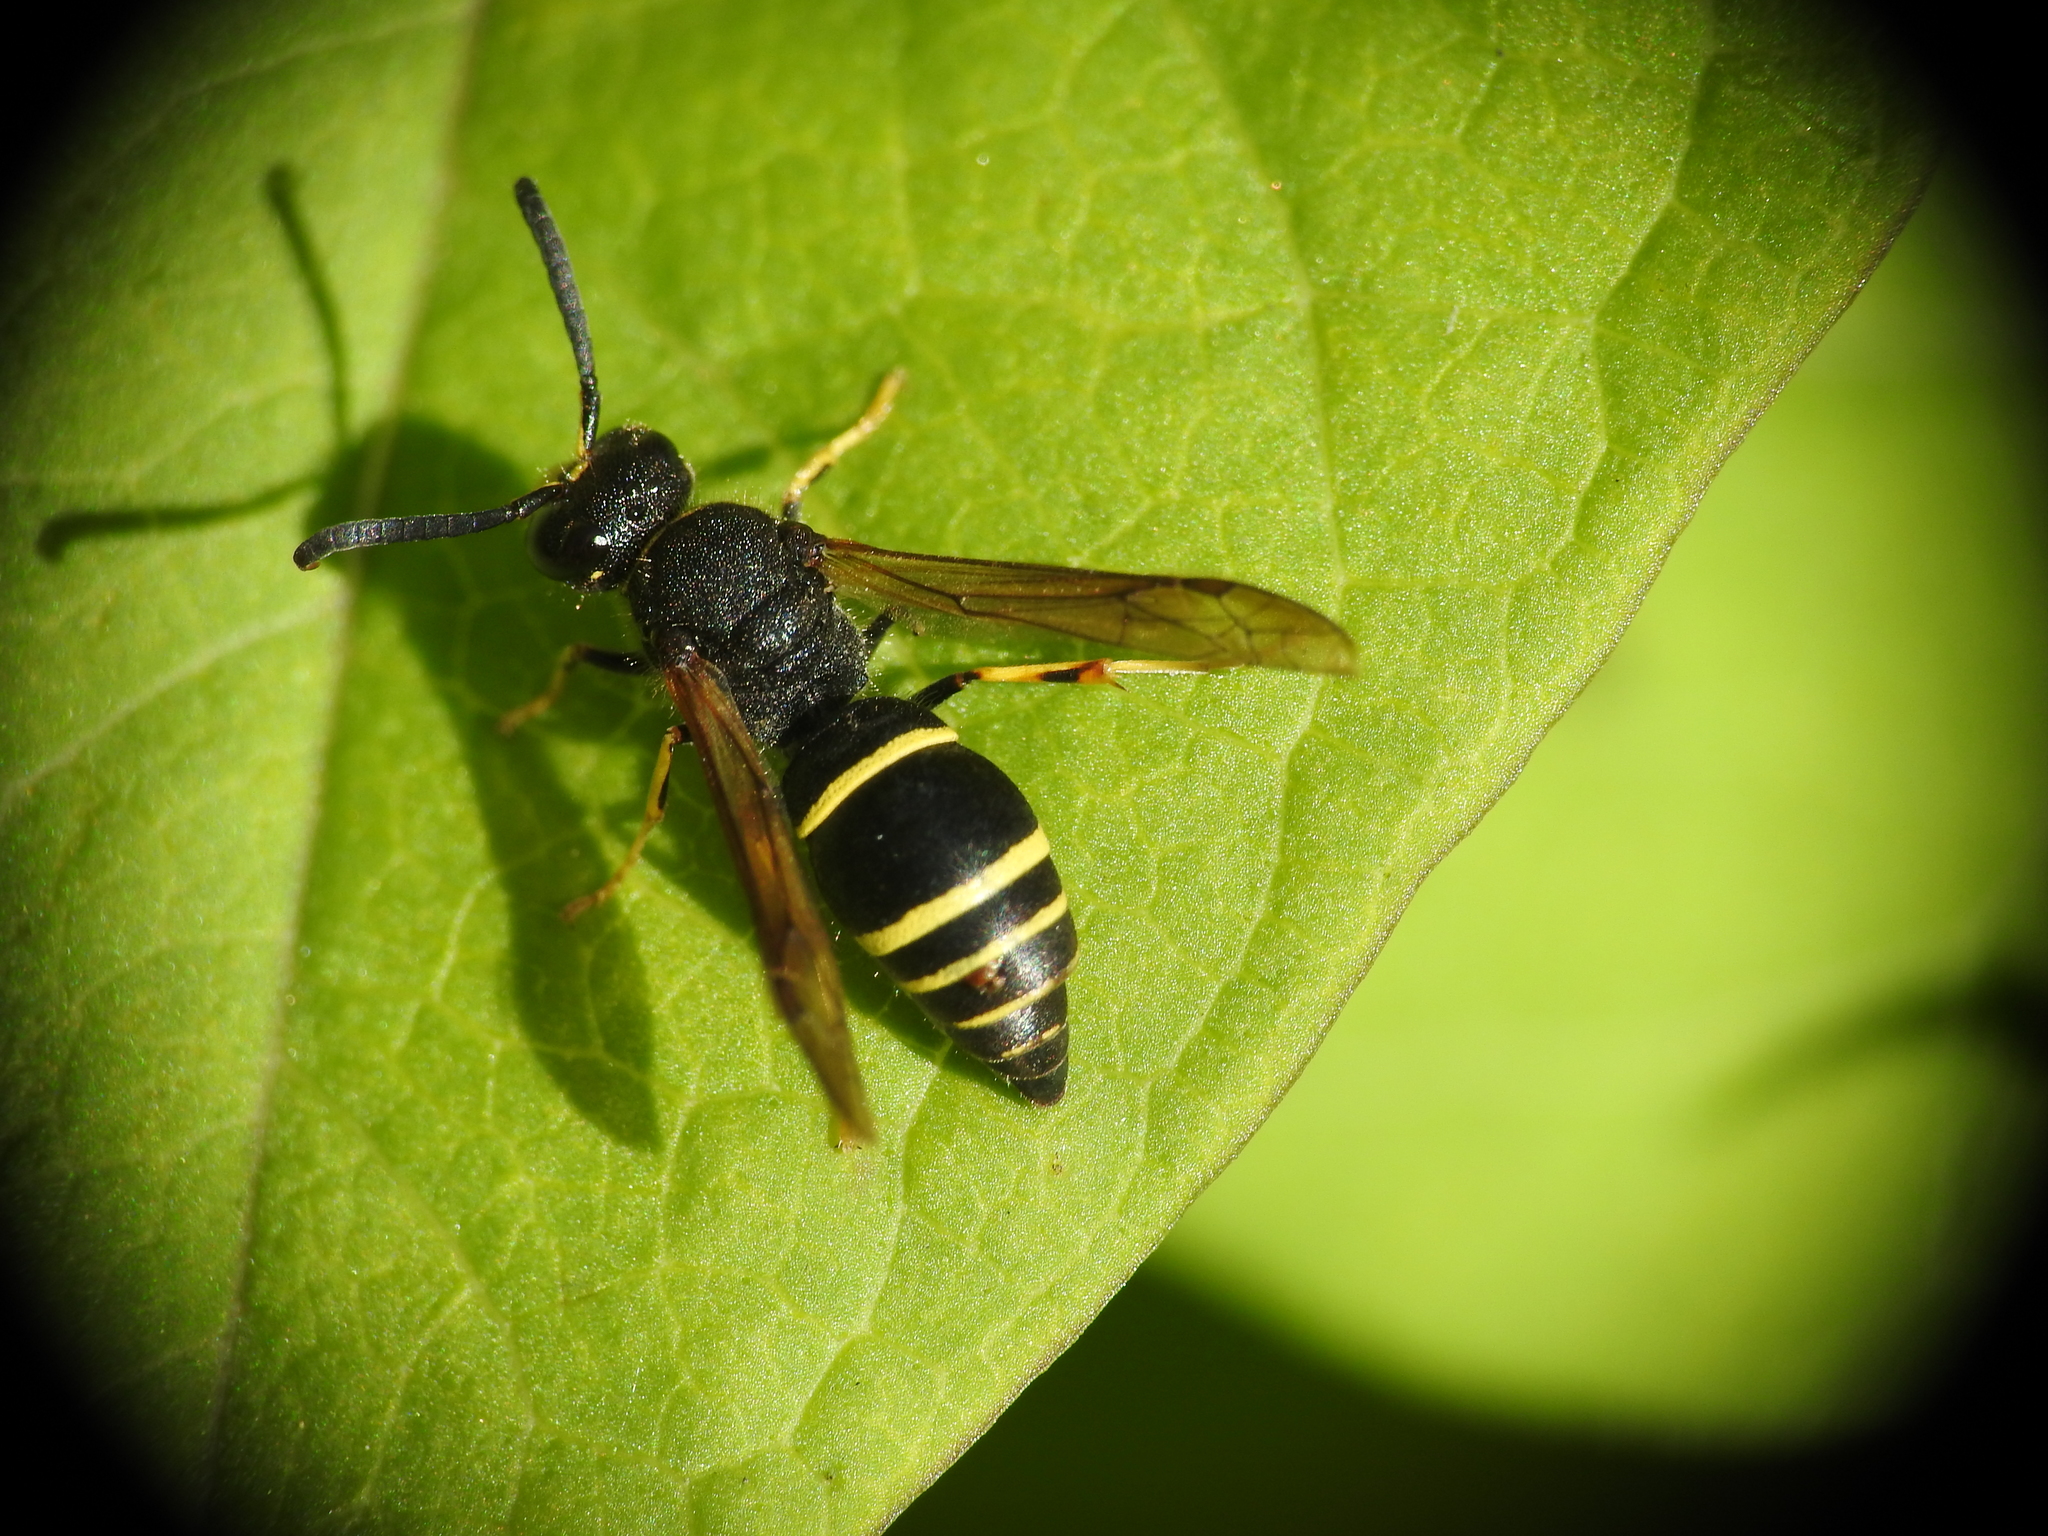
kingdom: Animalia
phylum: Arthropoda
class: Insecta
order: Hymenoptera
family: Vespidae
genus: Ancistrocerus
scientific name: Ancistrocerus
